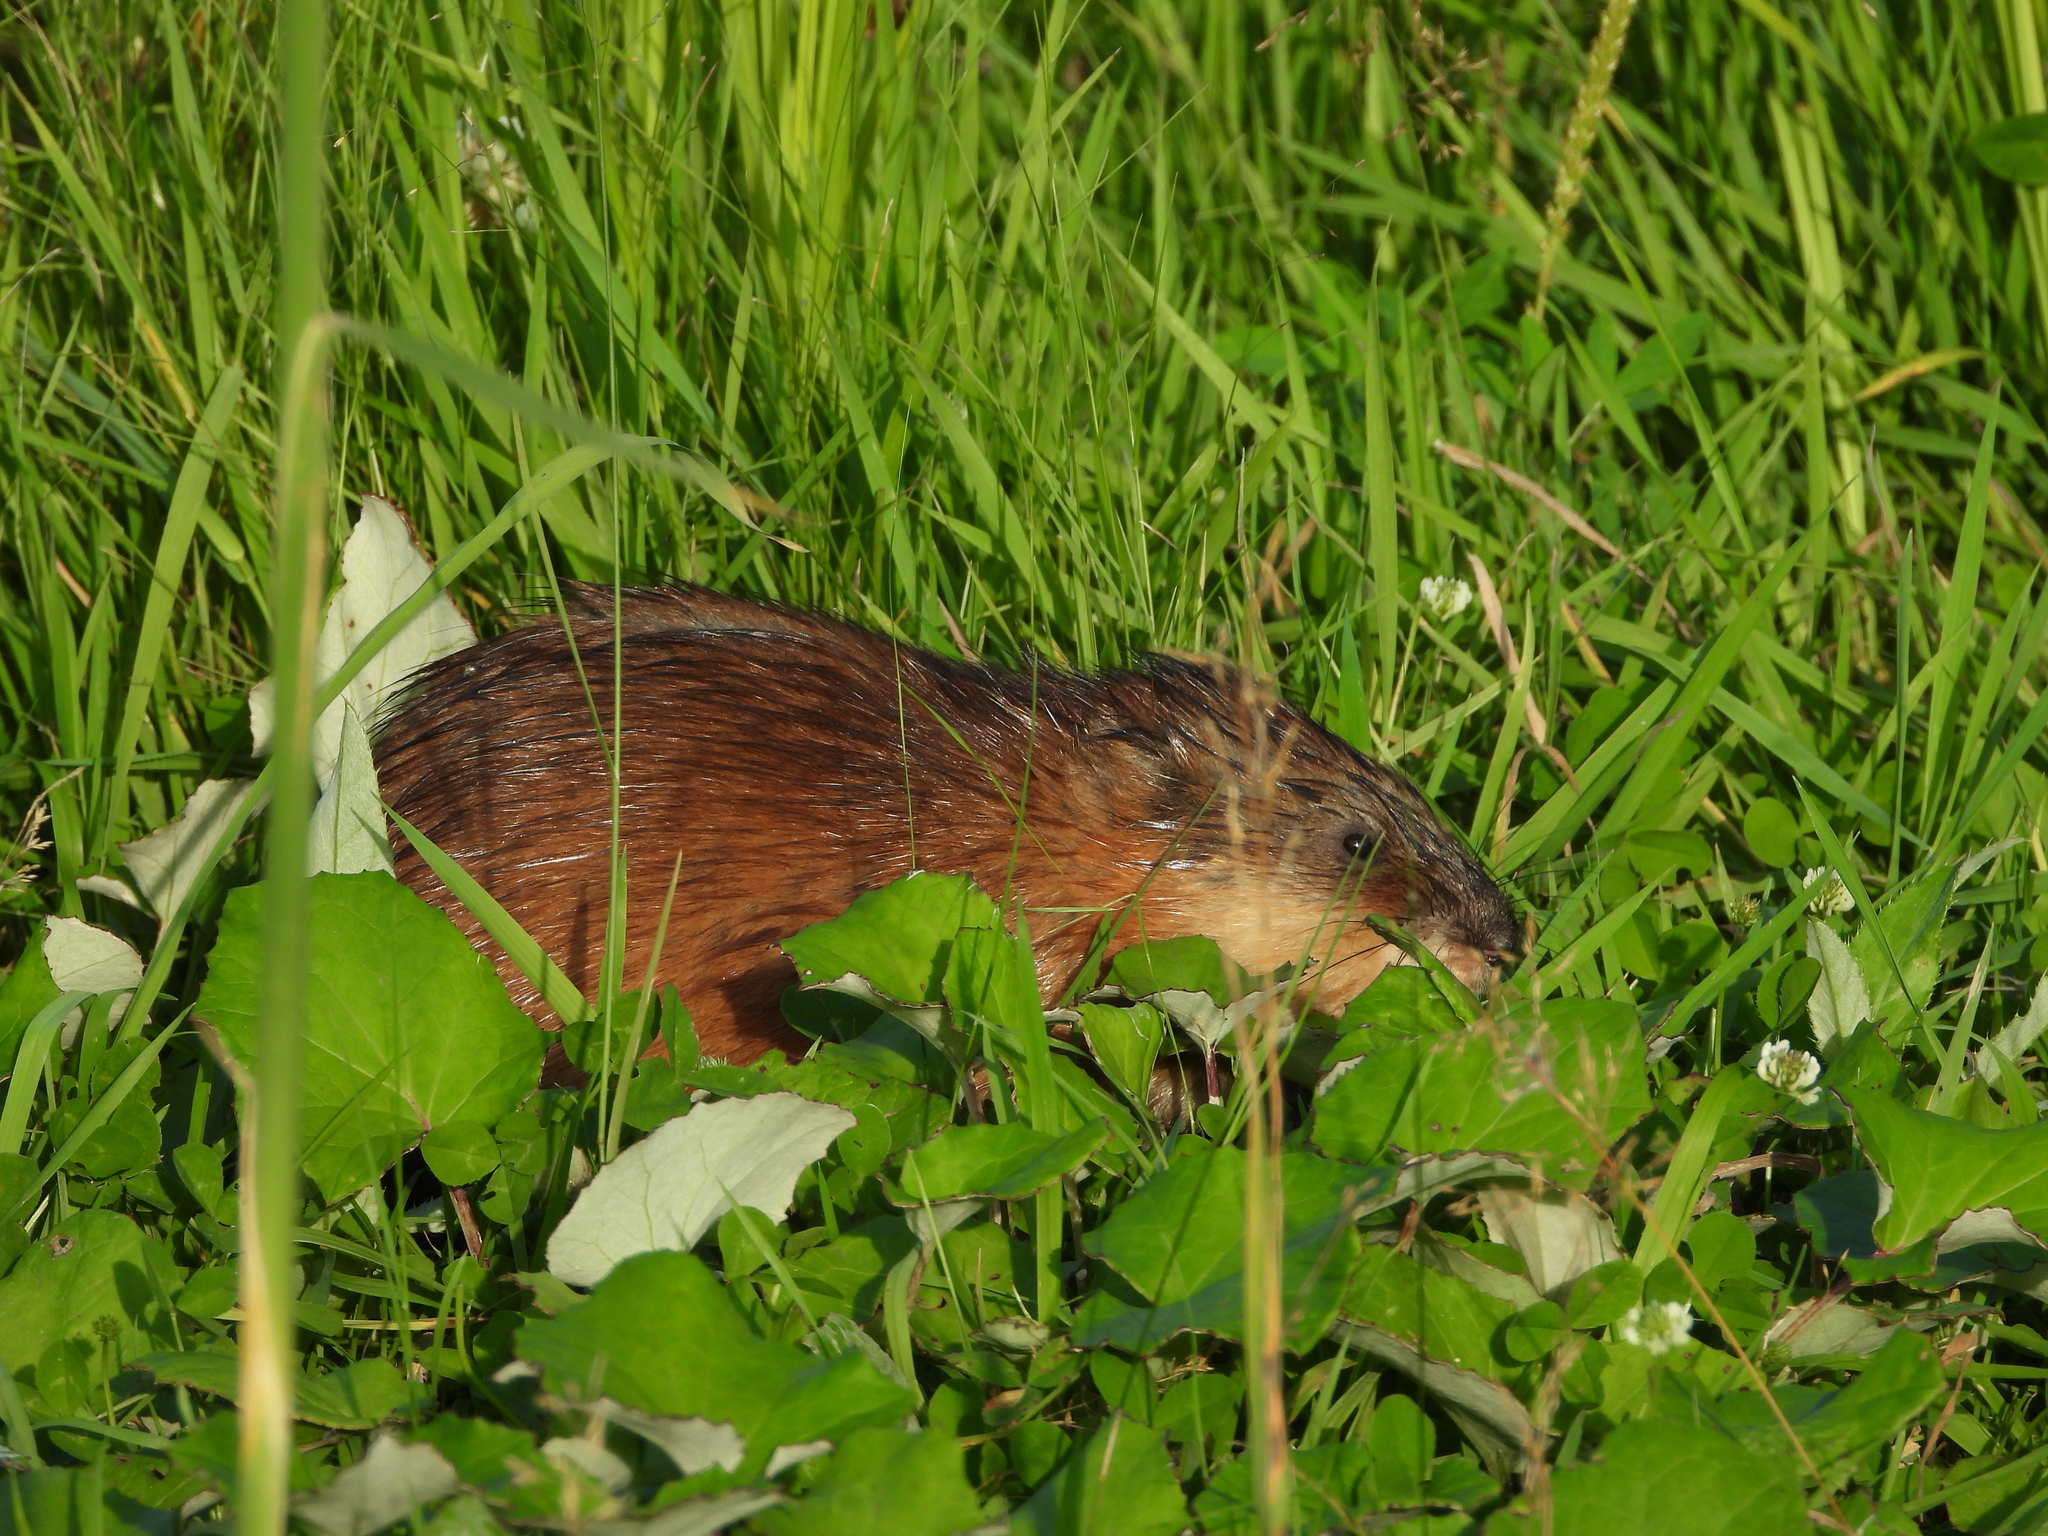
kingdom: Animalia
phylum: Chordata
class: Mammalia
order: Rodentia
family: Cricetidae
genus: Ondatra
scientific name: Ondatra zibethicus
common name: Muskrat
